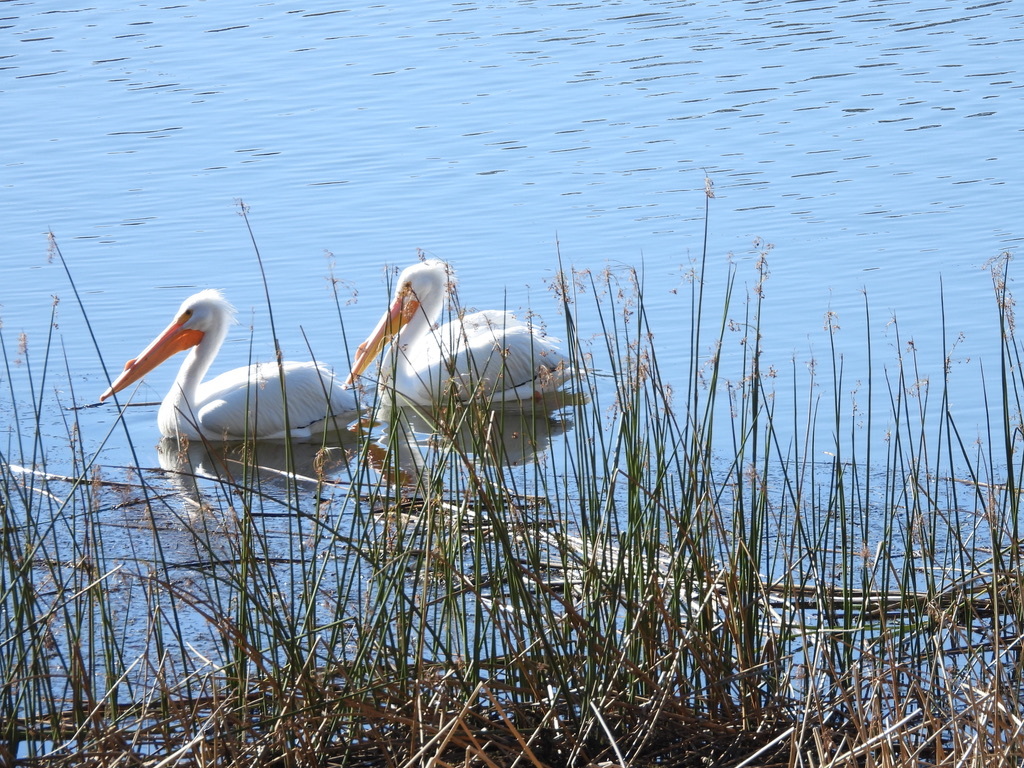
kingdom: Animalia
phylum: Chordata
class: Aves
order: Pelecaniformes
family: Pelecanidae
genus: Pelecanus
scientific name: Pelecanus erythrorhynchos
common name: American white pelican
